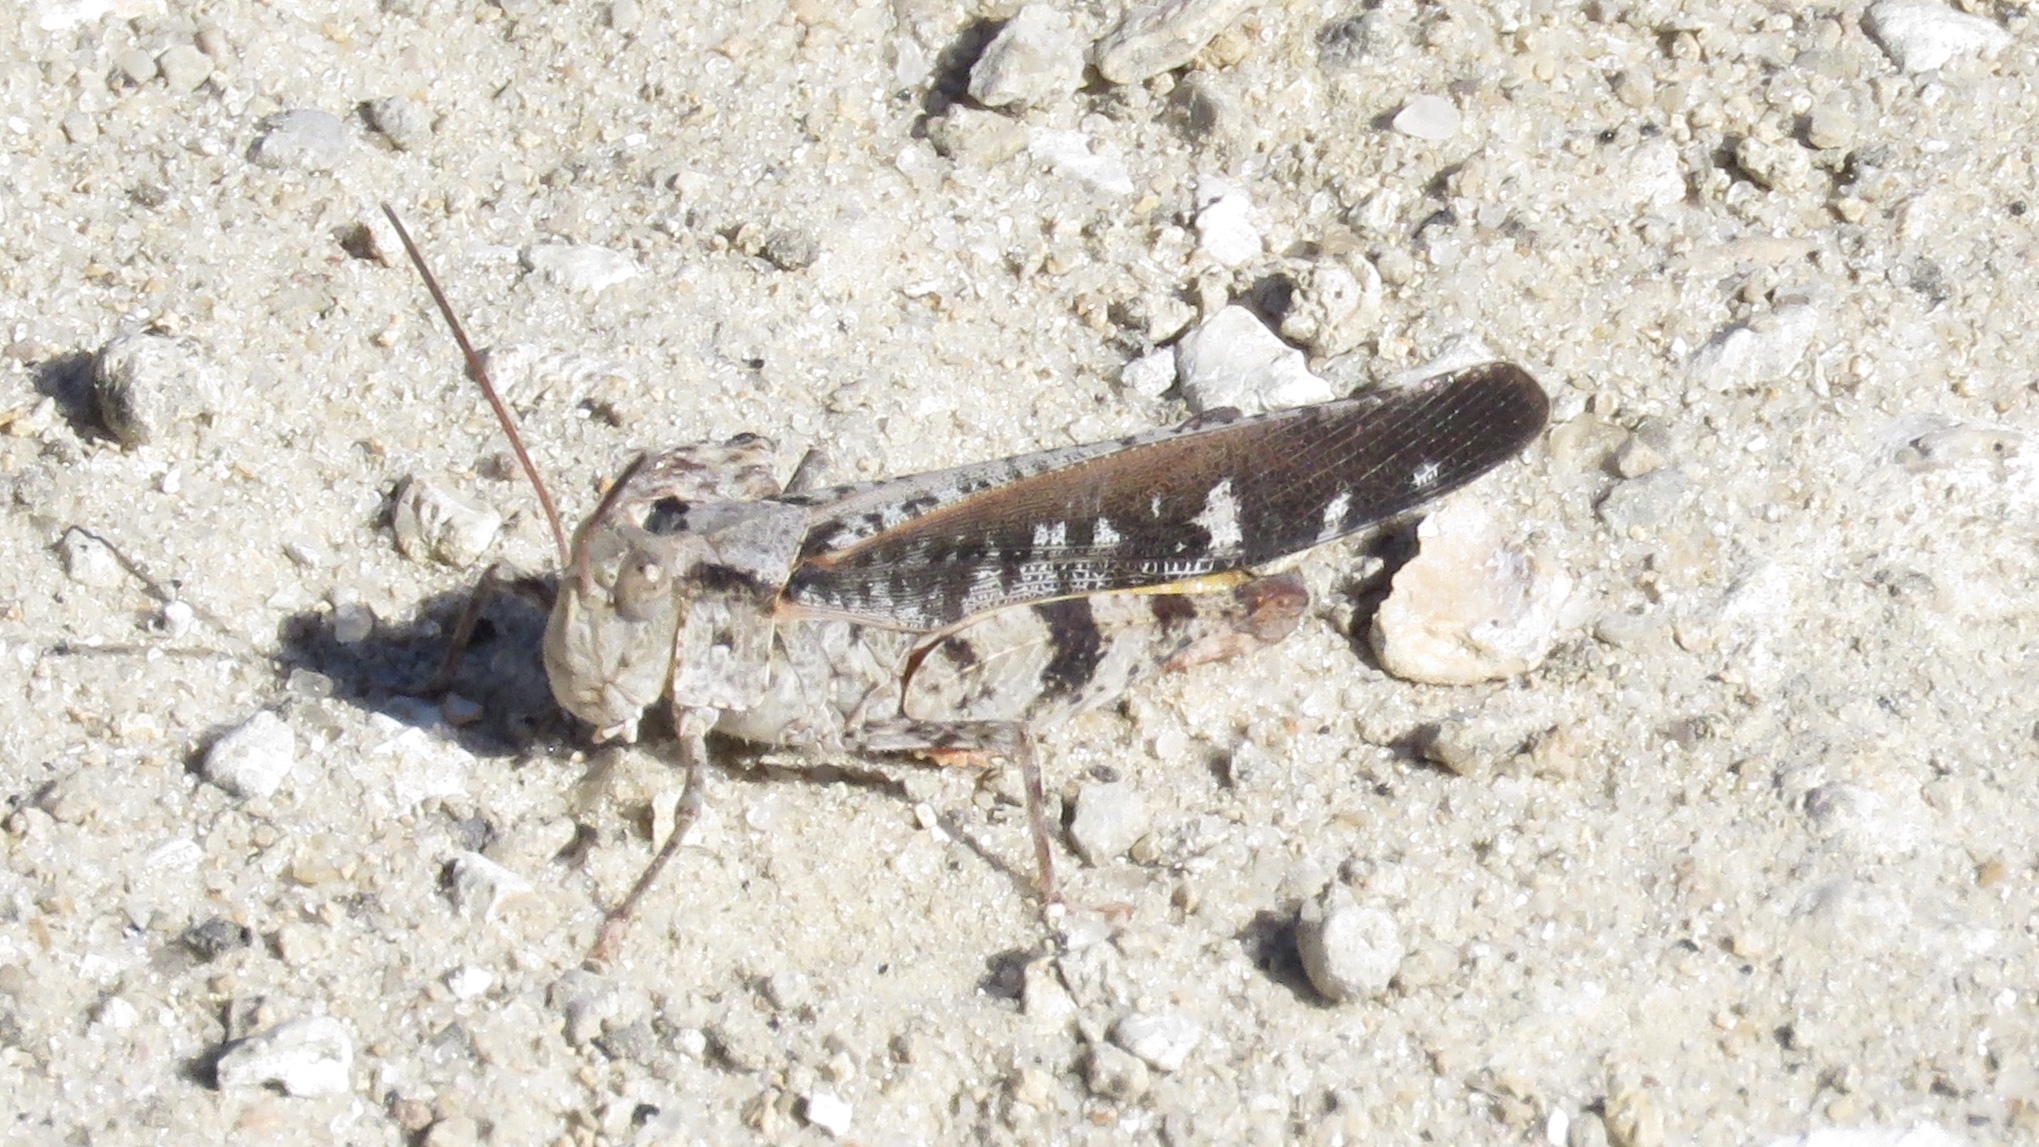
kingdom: Animalia
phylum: Arthropoda
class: Insecta
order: Orthoptera
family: Acrididae
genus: Spharagemon
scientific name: Spharagemon marmoratum
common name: Marbled grasshopper
